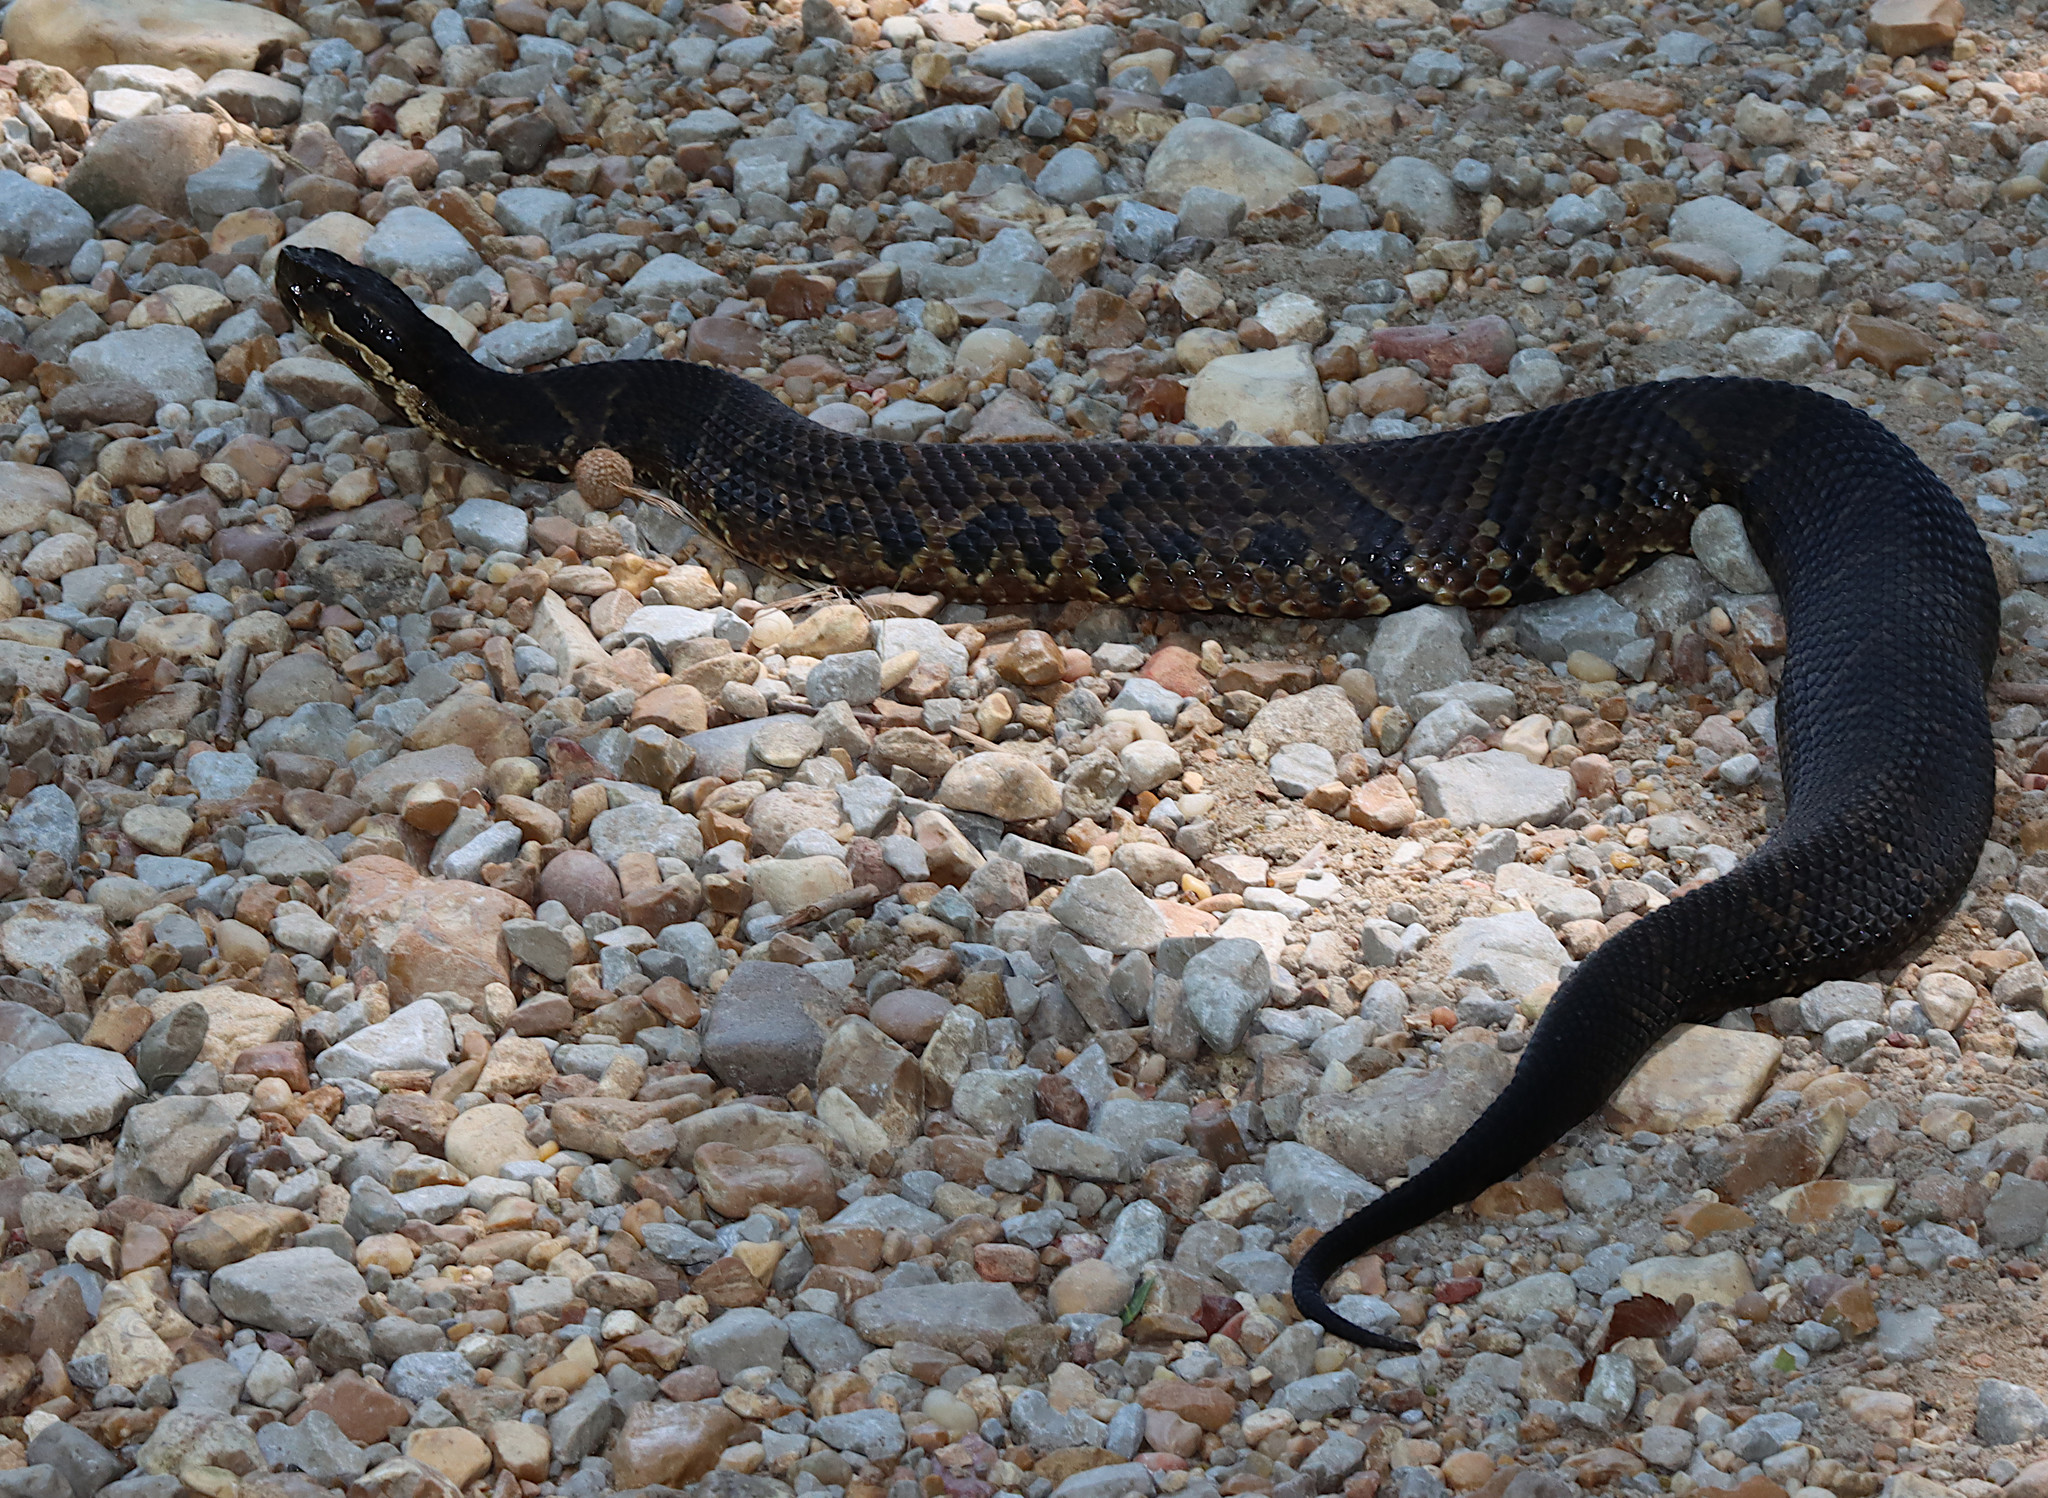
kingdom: Animalia
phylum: Chordata
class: Squamata
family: Viperidae
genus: Agkistrodon
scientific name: Agkistrodon piscivorus
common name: Cottonmouth
